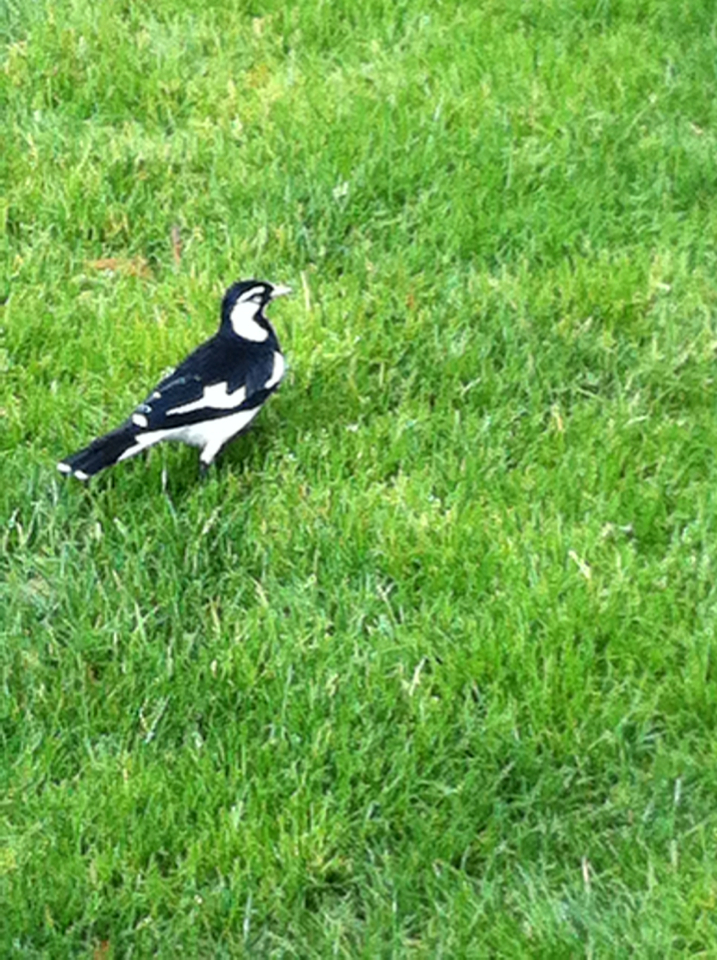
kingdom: Animalia
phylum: Chordata
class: Aves
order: Passeriformes
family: Monarchidae
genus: Grallina
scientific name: Grallina cyanoleuca
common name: Magpie-lark
